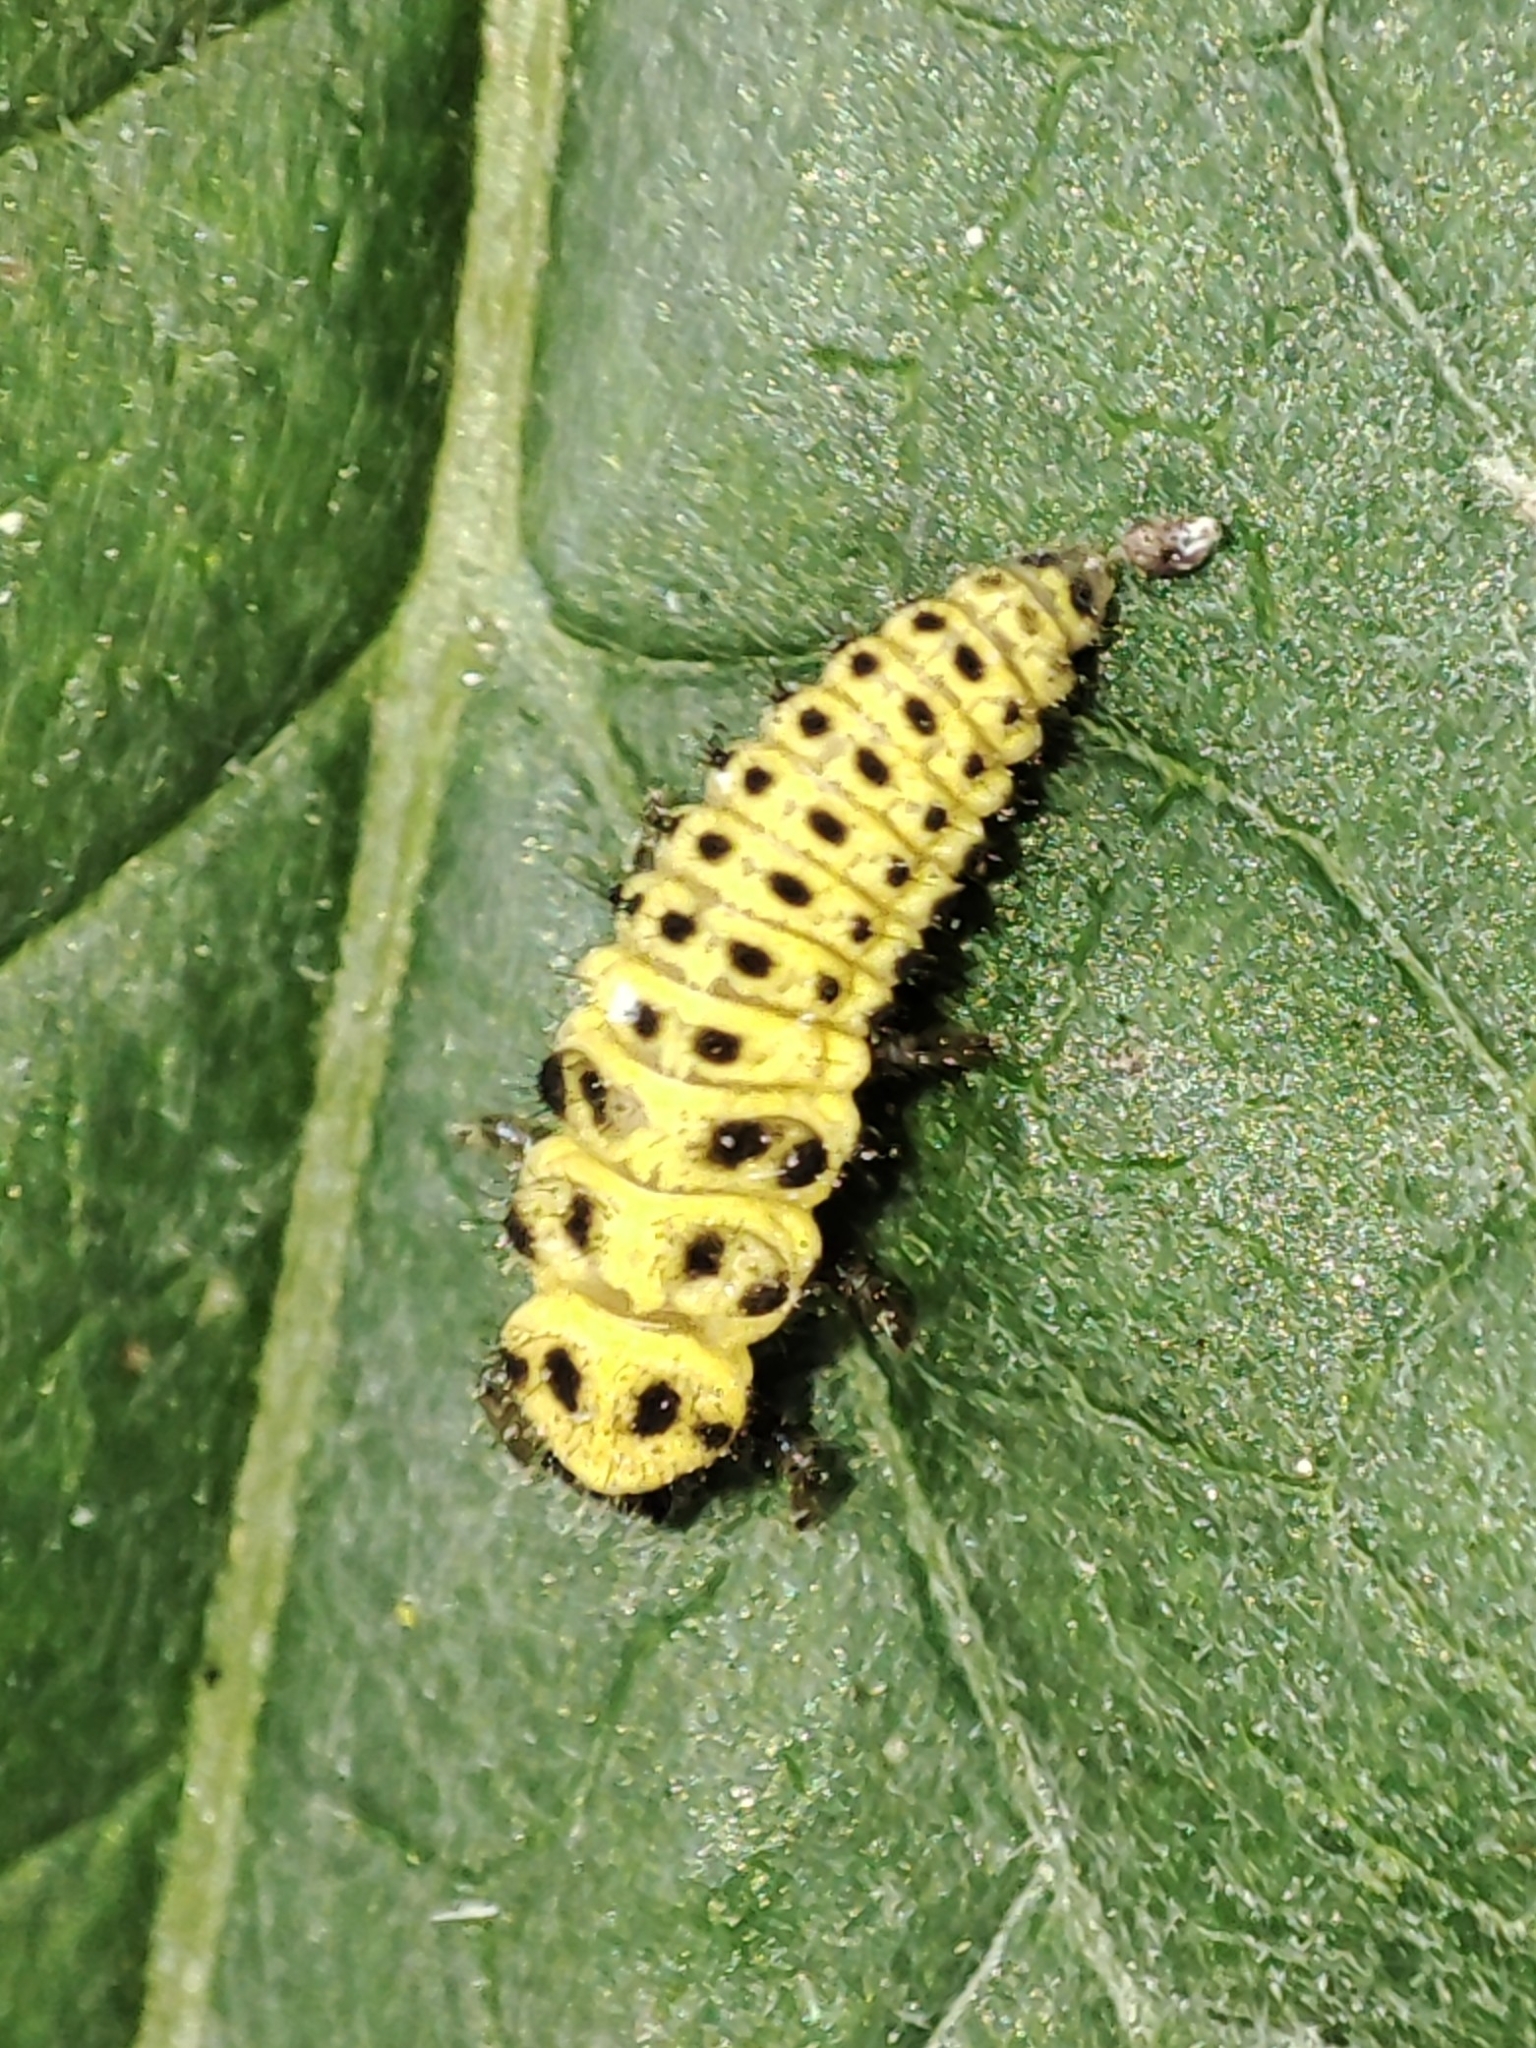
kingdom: Animalia
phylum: Arthropoda
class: Insecta
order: Coleoptera
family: Coccinellidae
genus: Psyllobora
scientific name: Psyllobora vigintiduopunctata
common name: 22-spot ladybird
